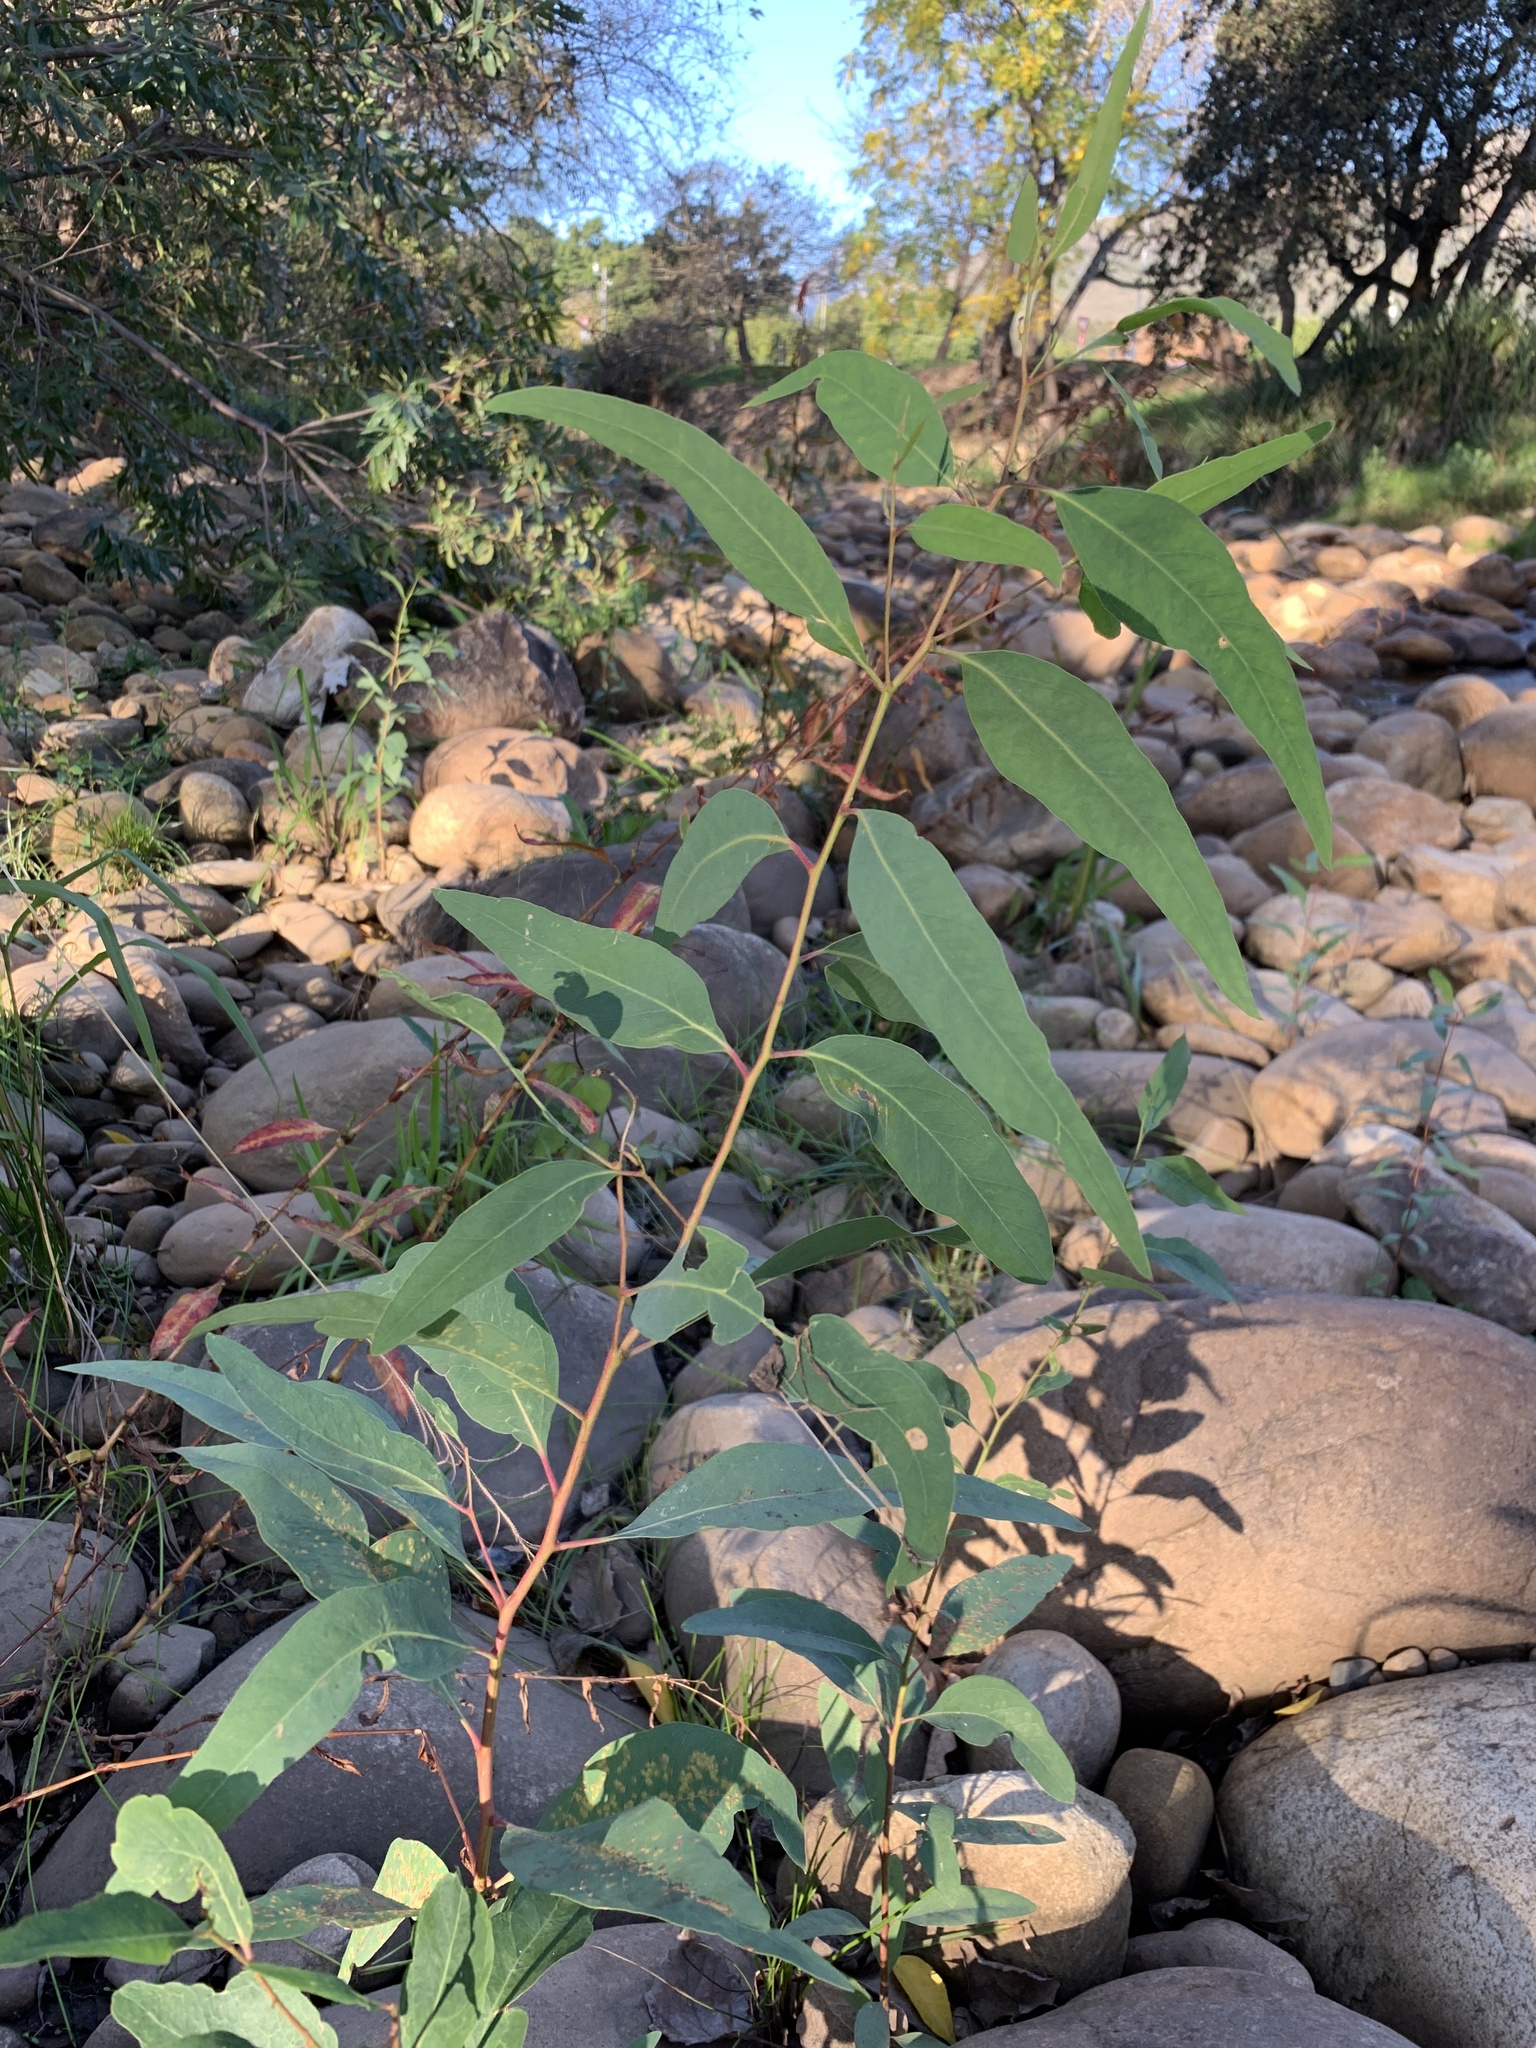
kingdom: Plantae
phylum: Tracheophyta
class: Magnoliopsida
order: Myrtales
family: Myrtaceae
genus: Eucalyptus
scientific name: Eucalyptus camaldulensis
